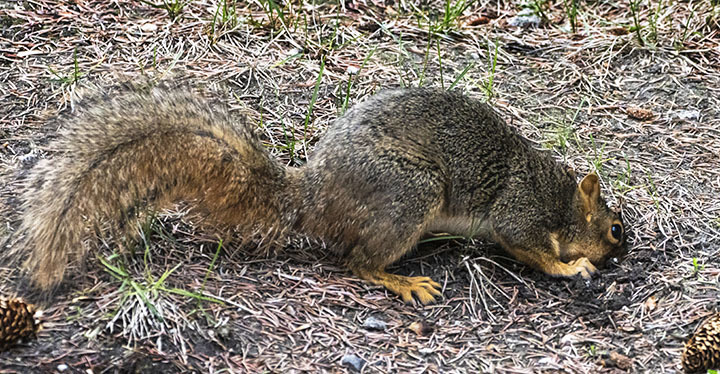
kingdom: Animalia
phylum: Chordata
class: Mammalia
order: Rodentia
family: Sciuridae
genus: Sciurus
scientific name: Sciurus niger
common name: Fox squirrel
